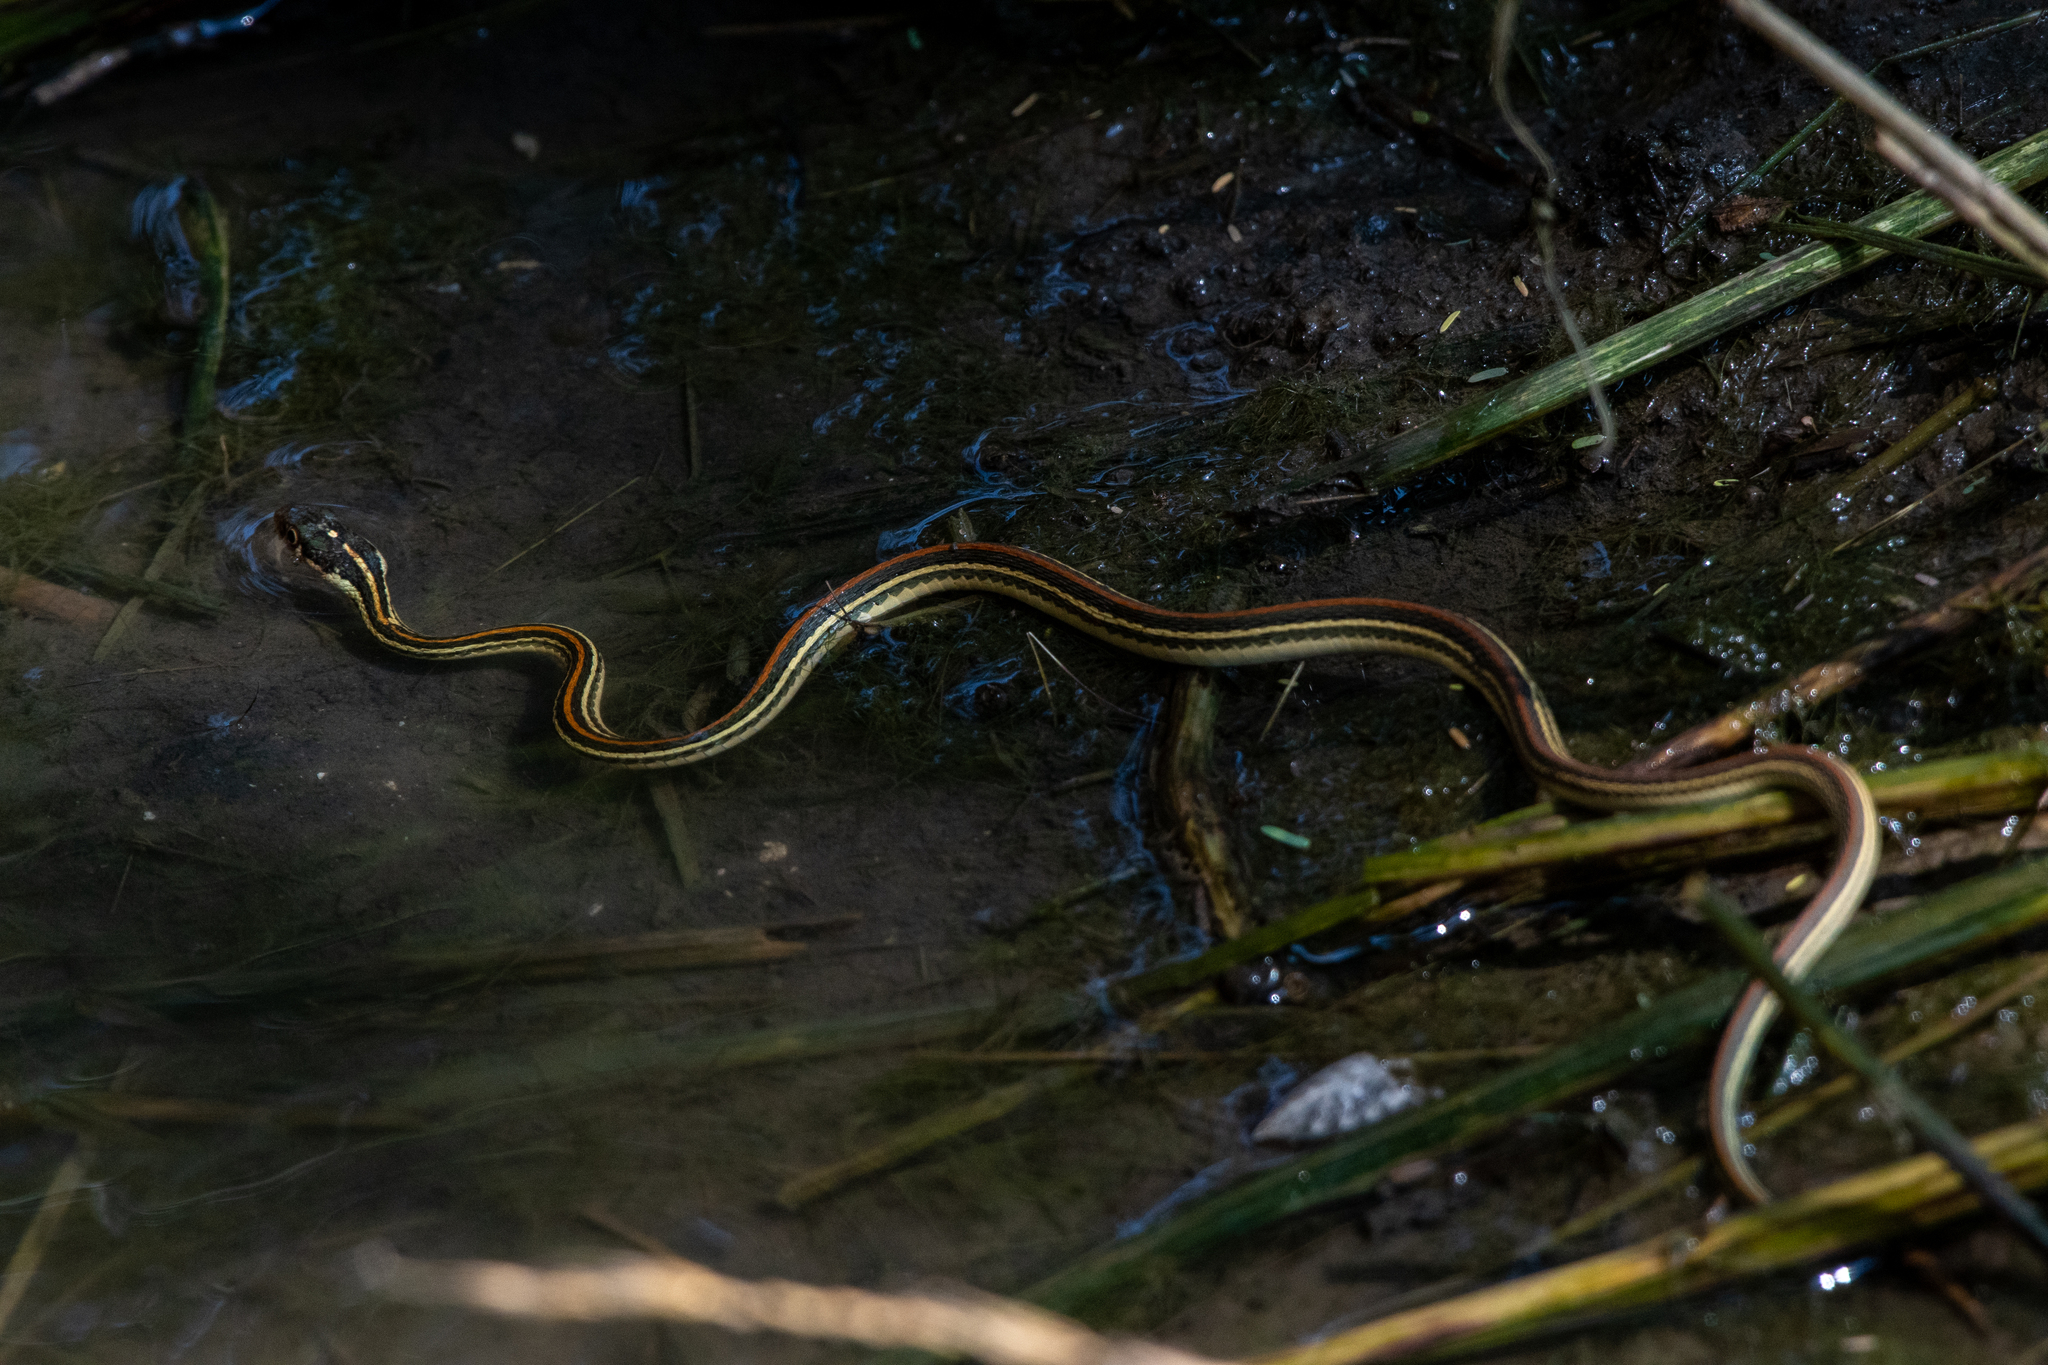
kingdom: Animalia
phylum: Chordata
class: Squamata
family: Colubridae
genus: Thamnophis
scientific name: Thamnophis proximus
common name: Western ribbon snake
